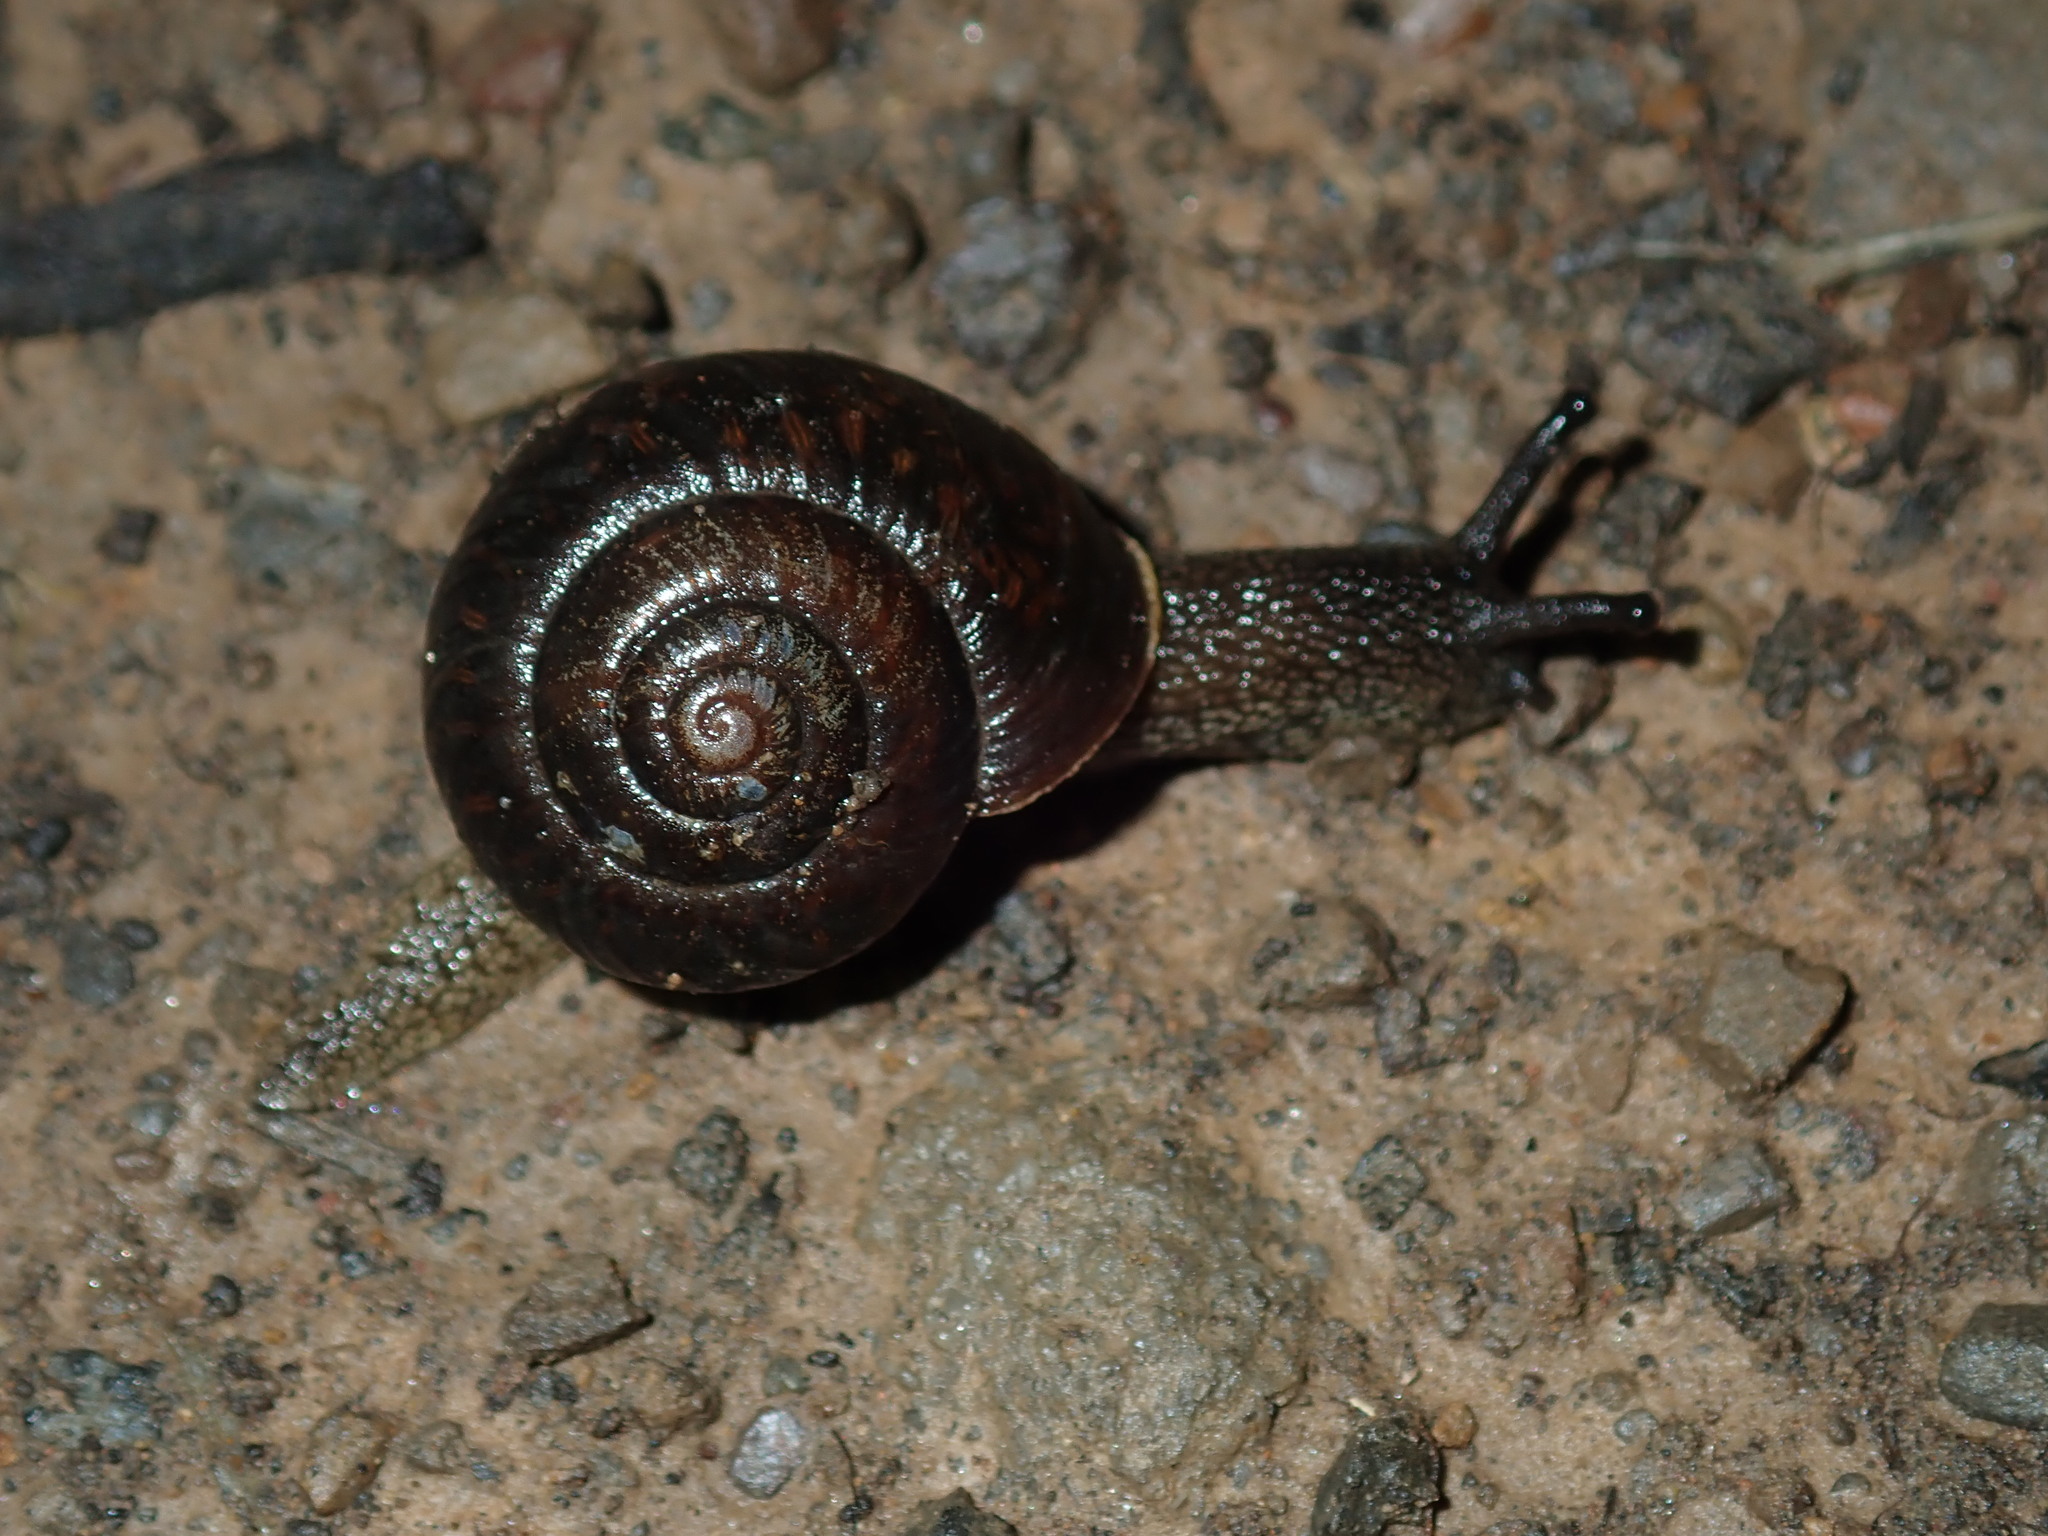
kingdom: Animalia
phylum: Mollusca
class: Gastropoda
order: Stylommatophora
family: Camaenidae
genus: Sauroconcha
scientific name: Sauroconcha sheai
